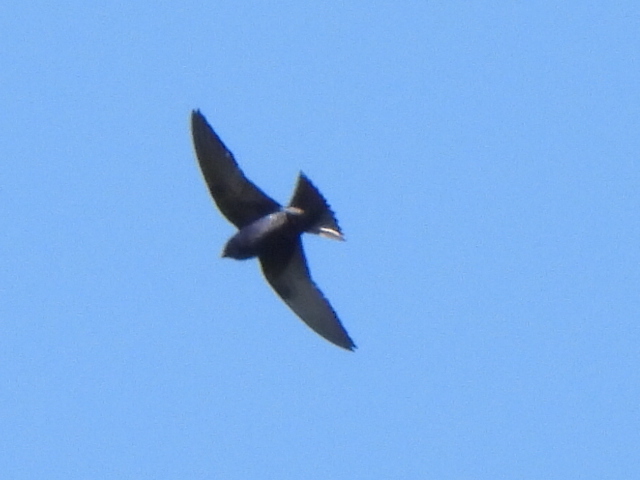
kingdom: Animalia
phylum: Chordata
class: Aves
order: Passeriformes
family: Hirundinidae
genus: Progne
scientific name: Progne subis
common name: Purple martin
